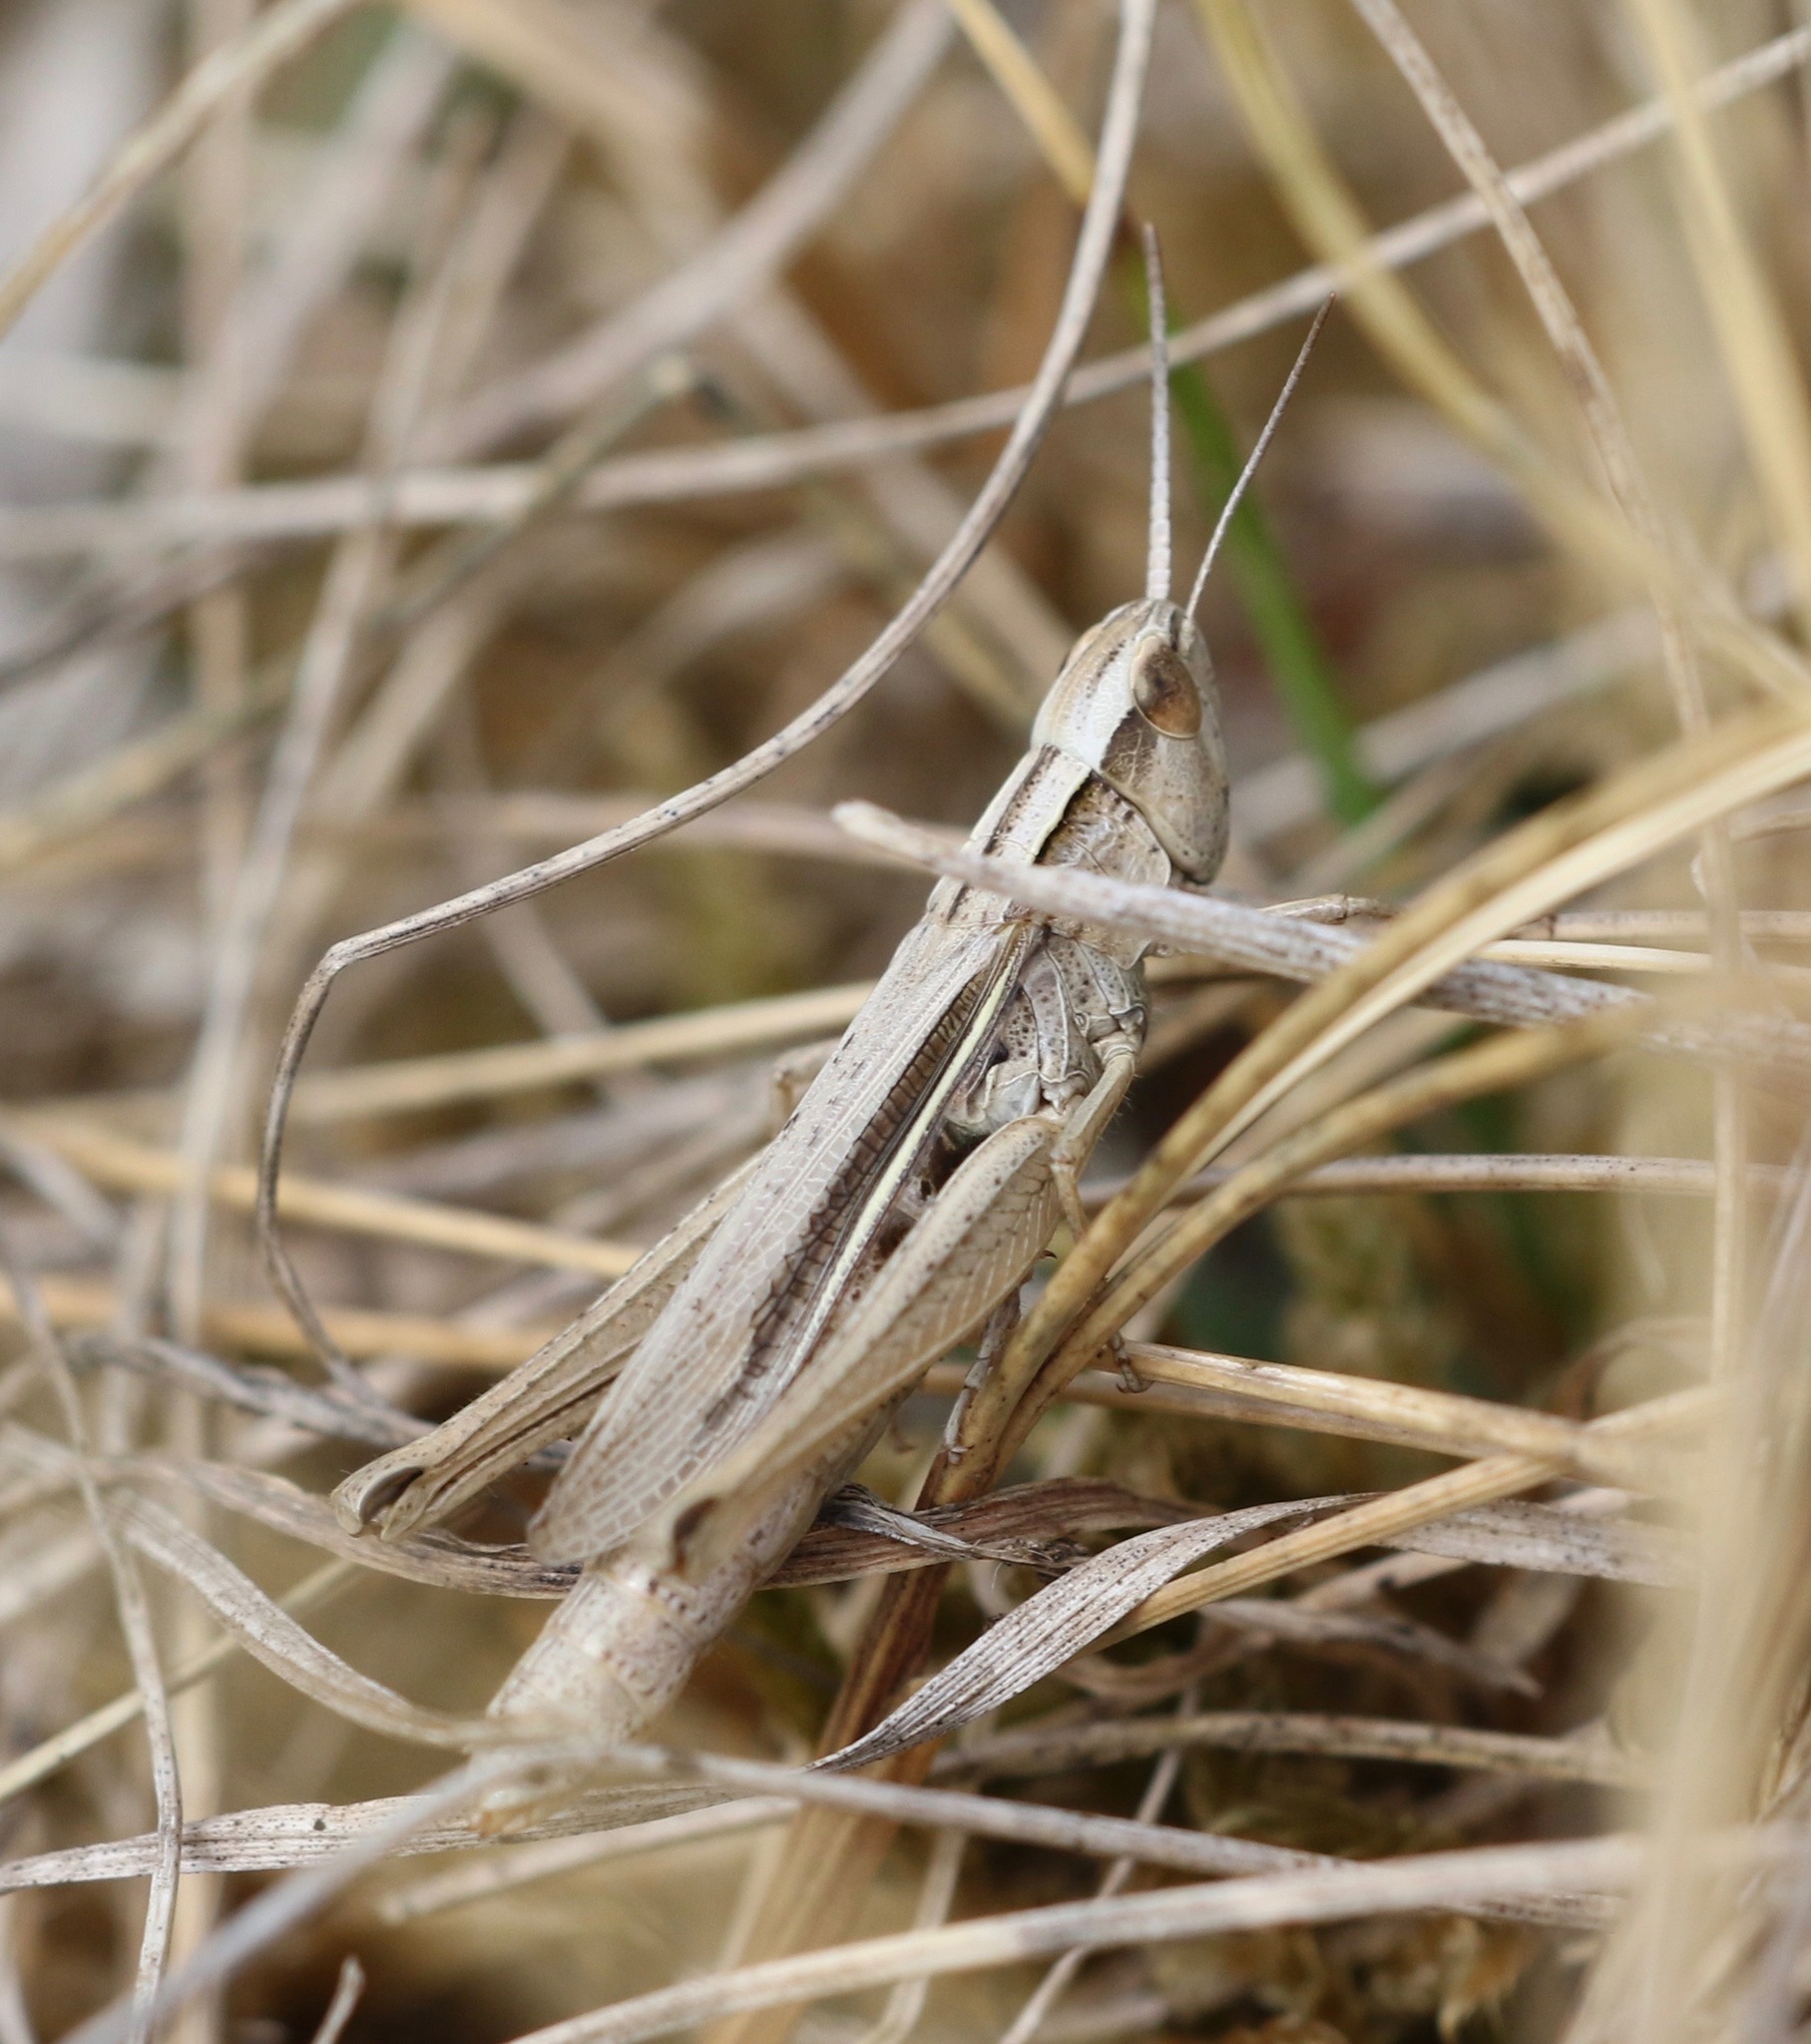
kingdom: Animalia
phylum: Arthropoda
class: Insecta
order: Orthoptera
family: Acrididae
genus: Chorthippus
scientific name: Chorthippus albomarginatus
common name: Lesser marsh grasshopper
